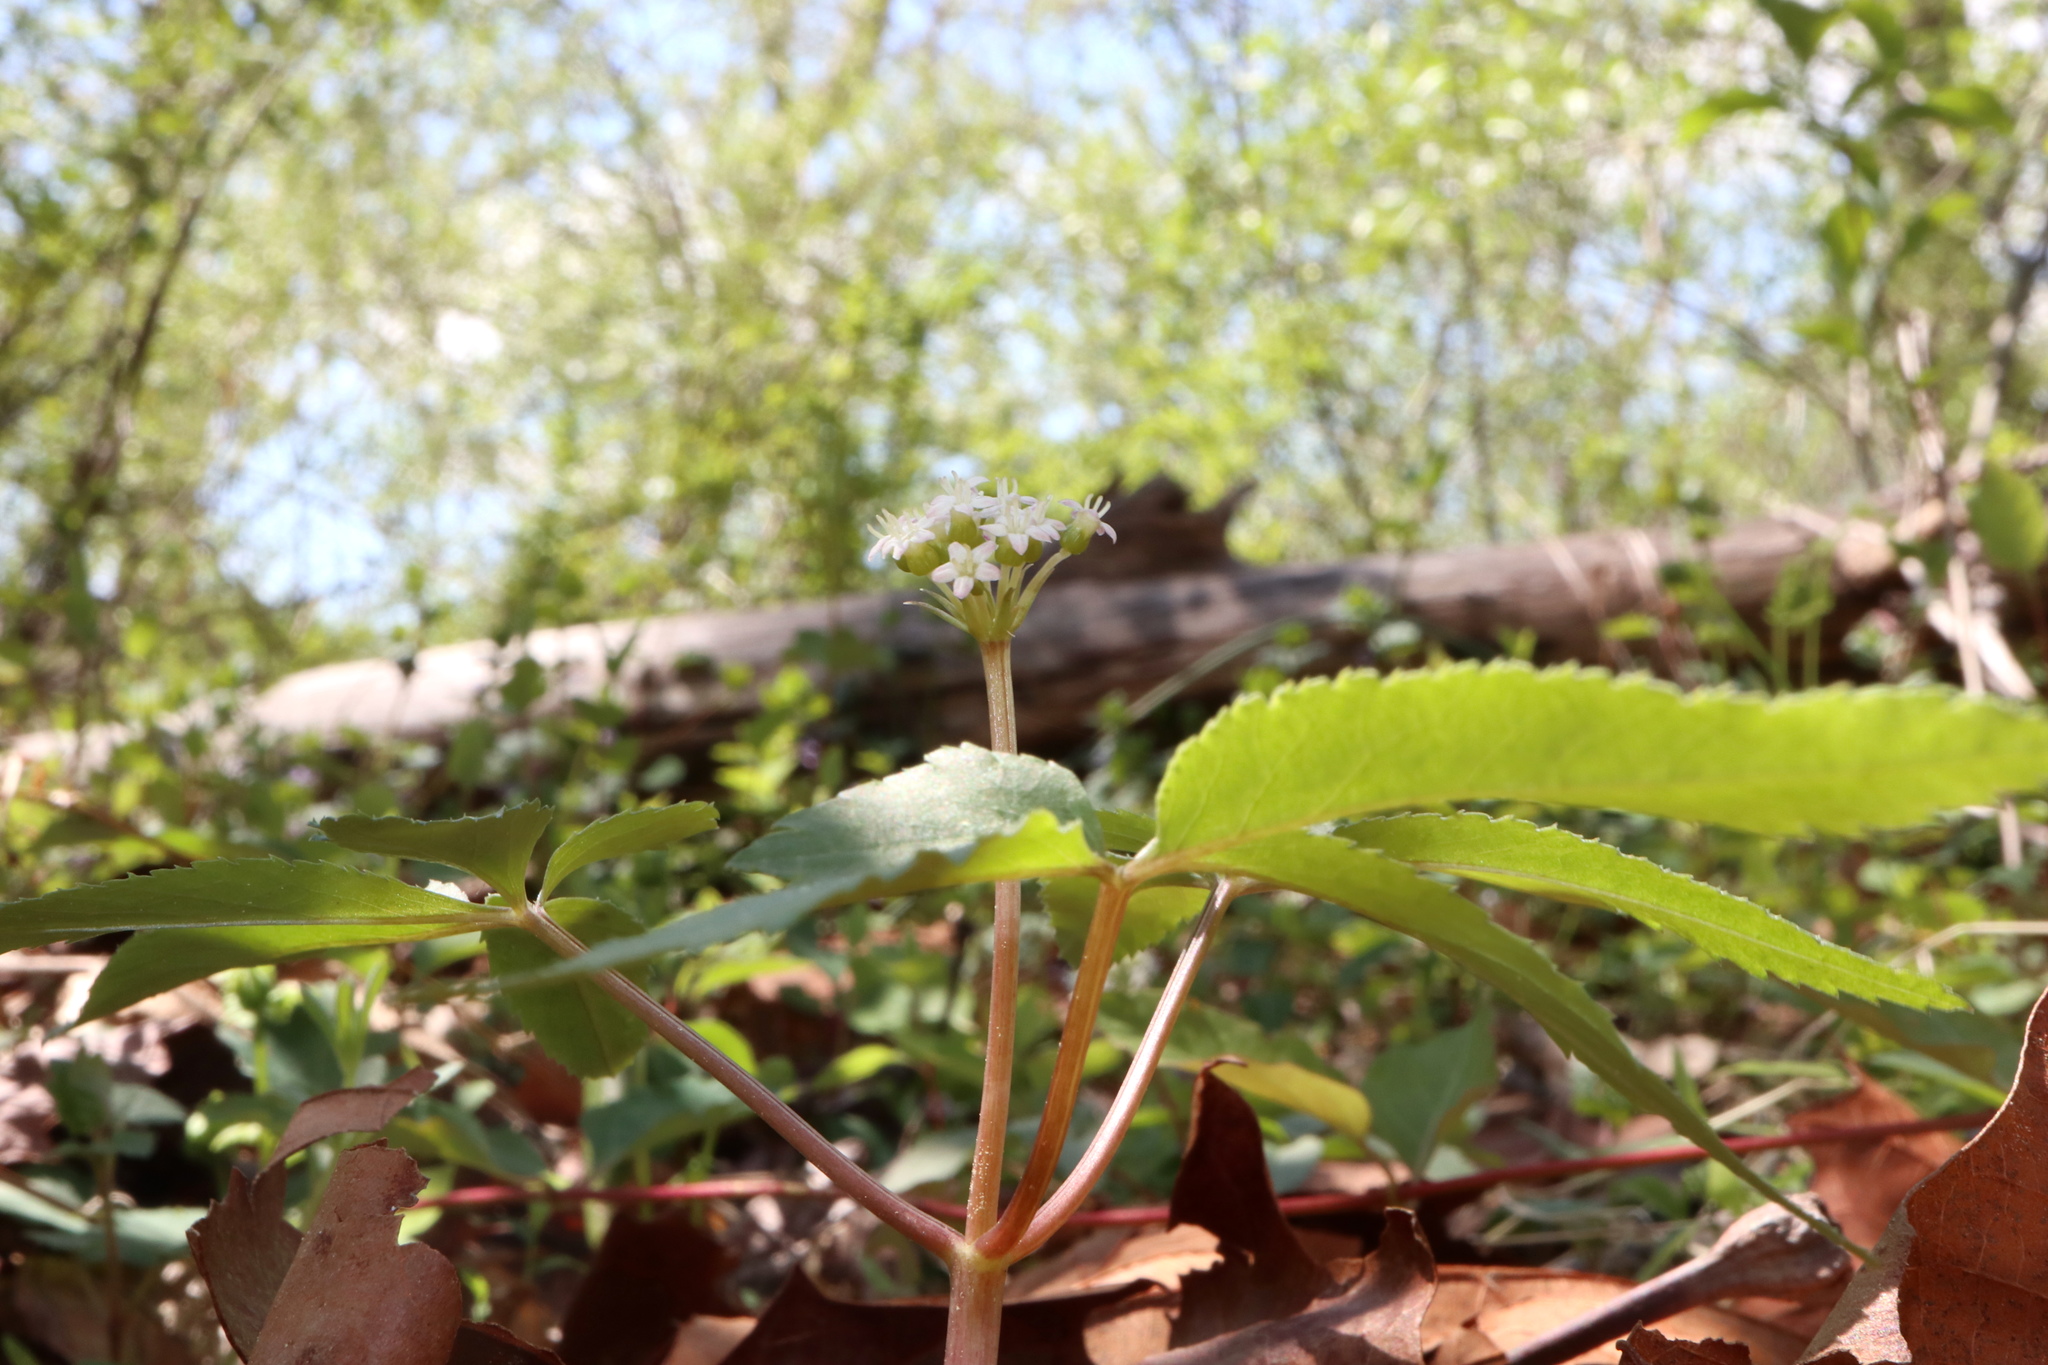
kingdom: Plantae
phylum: Tracheophyta
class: Magnoliopsida
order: Apiales
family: Araliaceae
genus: Panax
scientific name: Panax trifolius
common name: Dwarf ginseng
